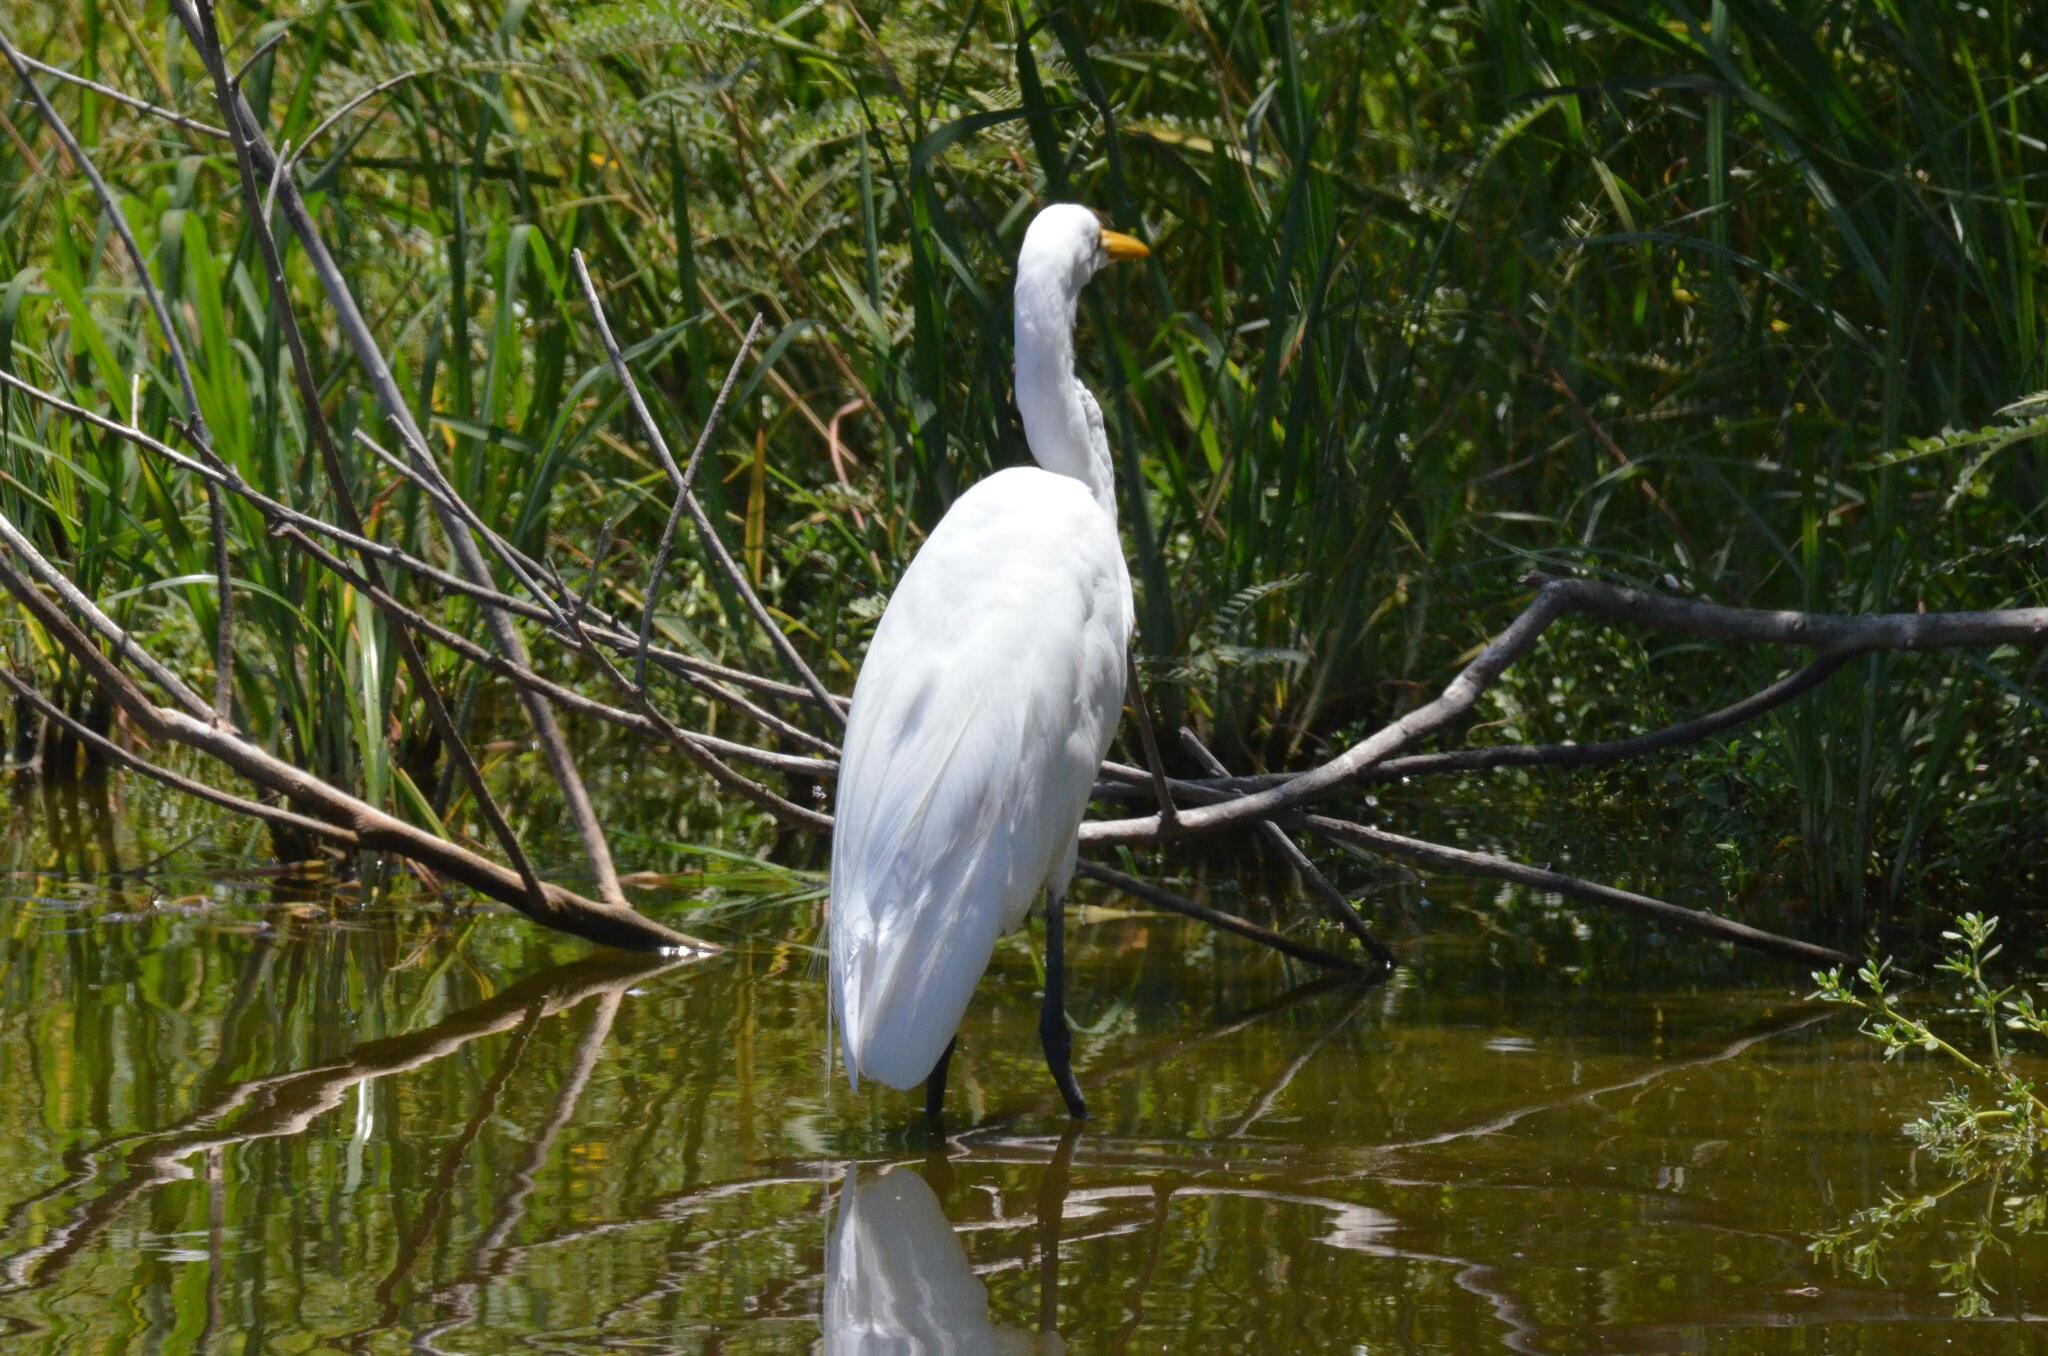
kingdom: Animalia
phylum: Chordata
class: Aves
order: Pelecaniformes
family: Ardeidae
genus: Ardea
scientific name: Ardea alba
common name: Great egret
